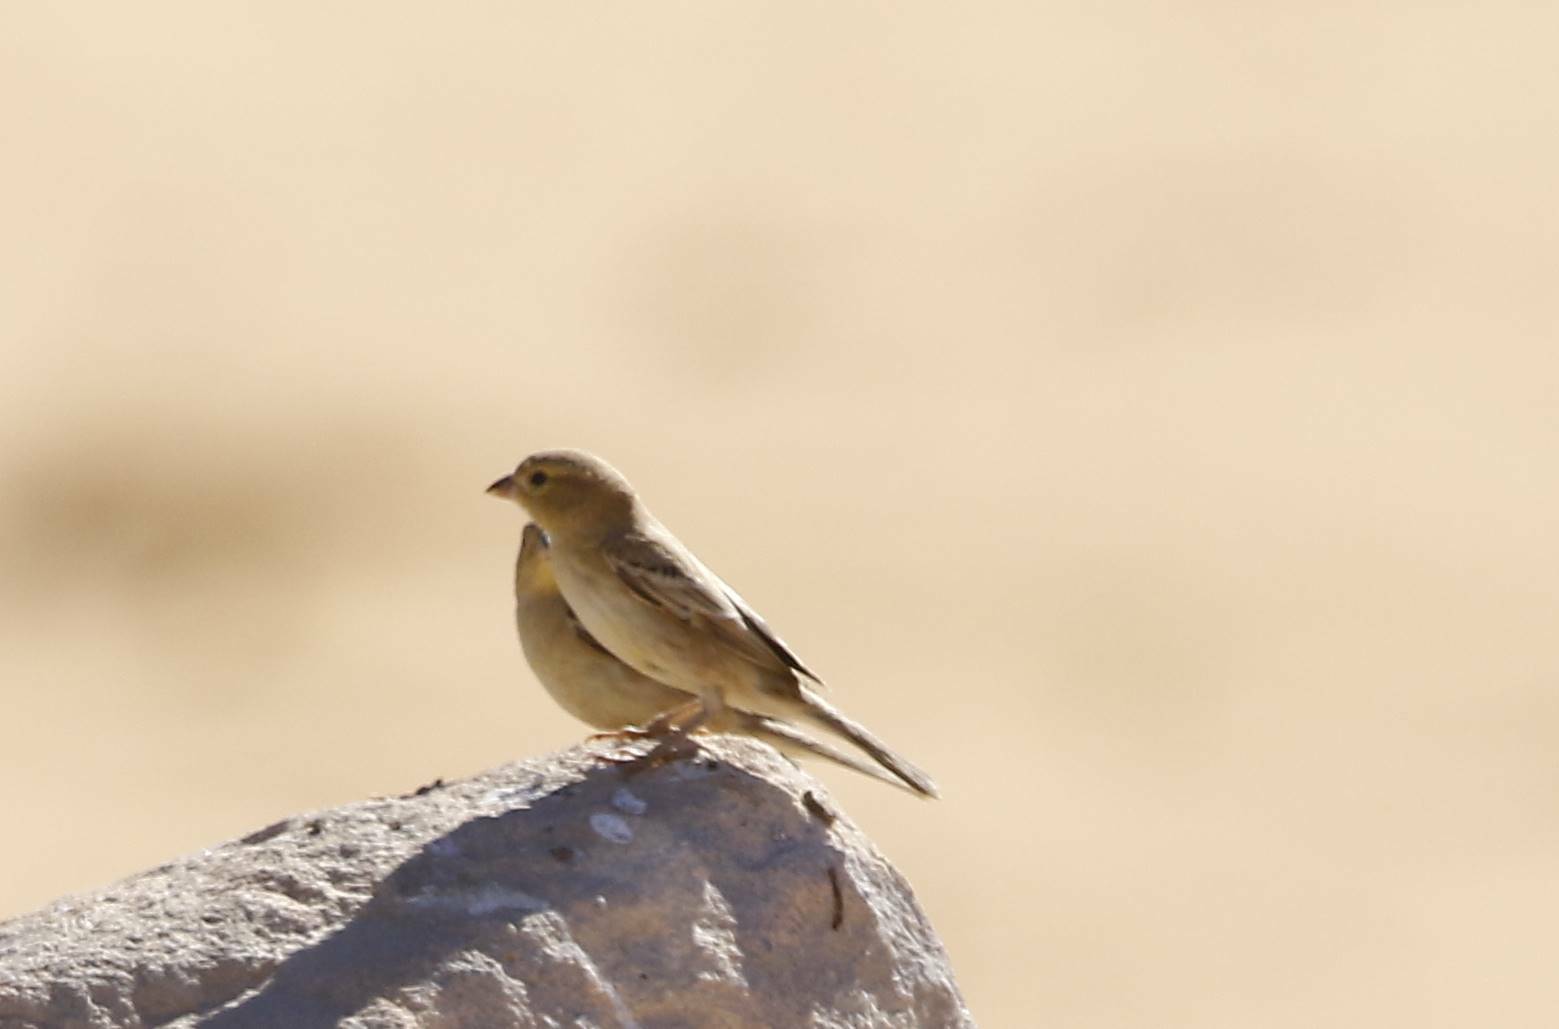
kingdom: Animalia
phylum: Chordata
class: Aves
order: Passeriformes
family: Passeridae
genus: Passer
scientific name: Passer luteus
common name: Sudan golden sparrow
